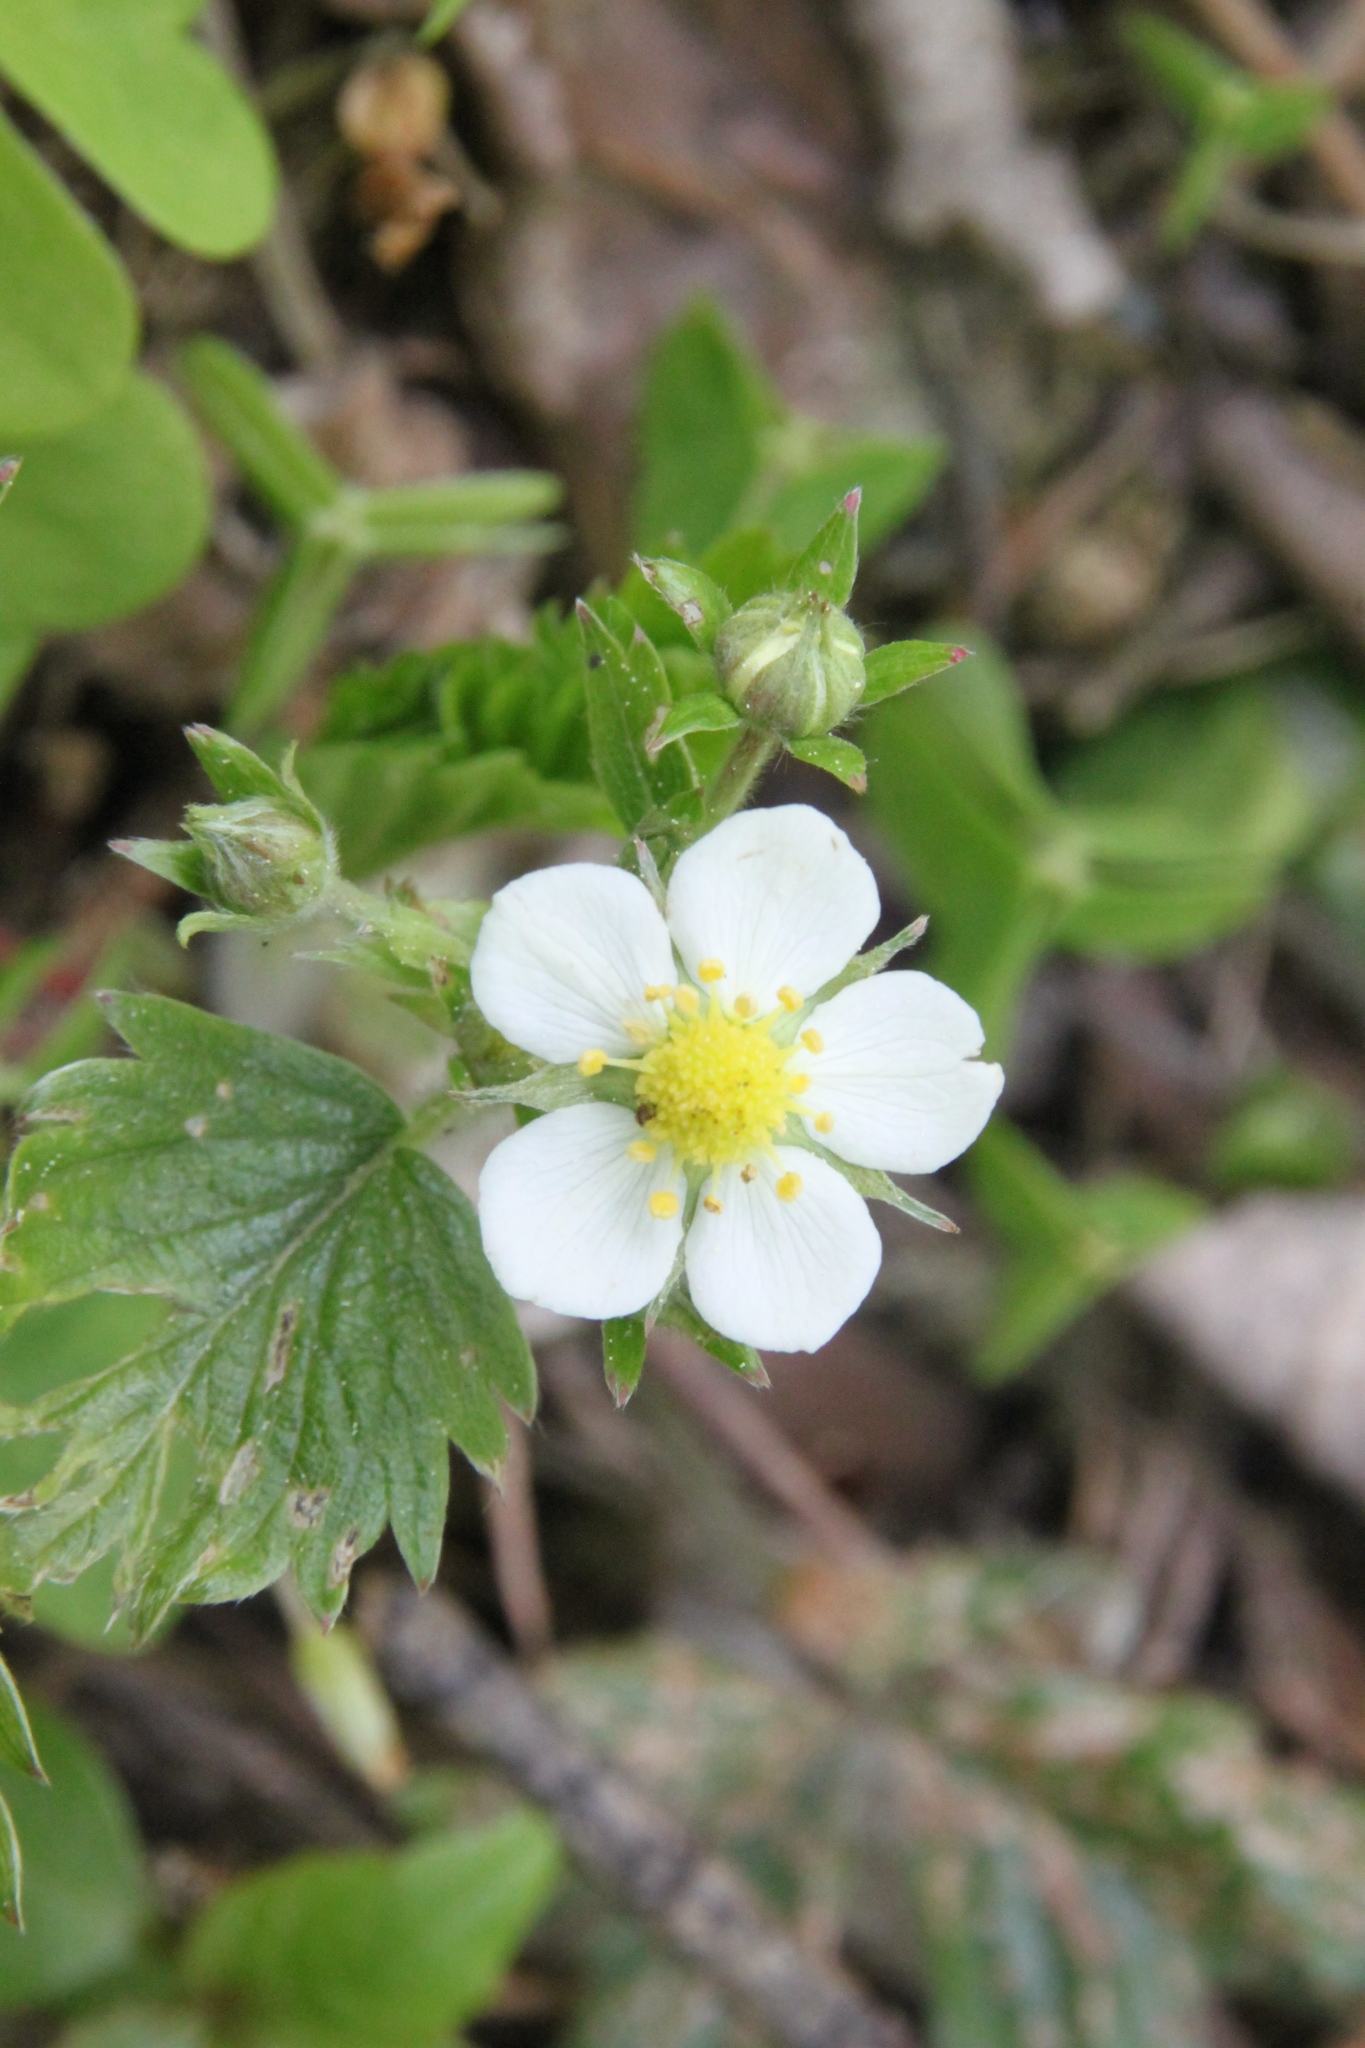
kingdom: Plantae
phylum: Tracheophyta
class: Magnoliopsida
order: Rosales
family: Rosaceae
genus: Fragaria
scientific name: Fragaria vesca
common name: Wild strawberry
